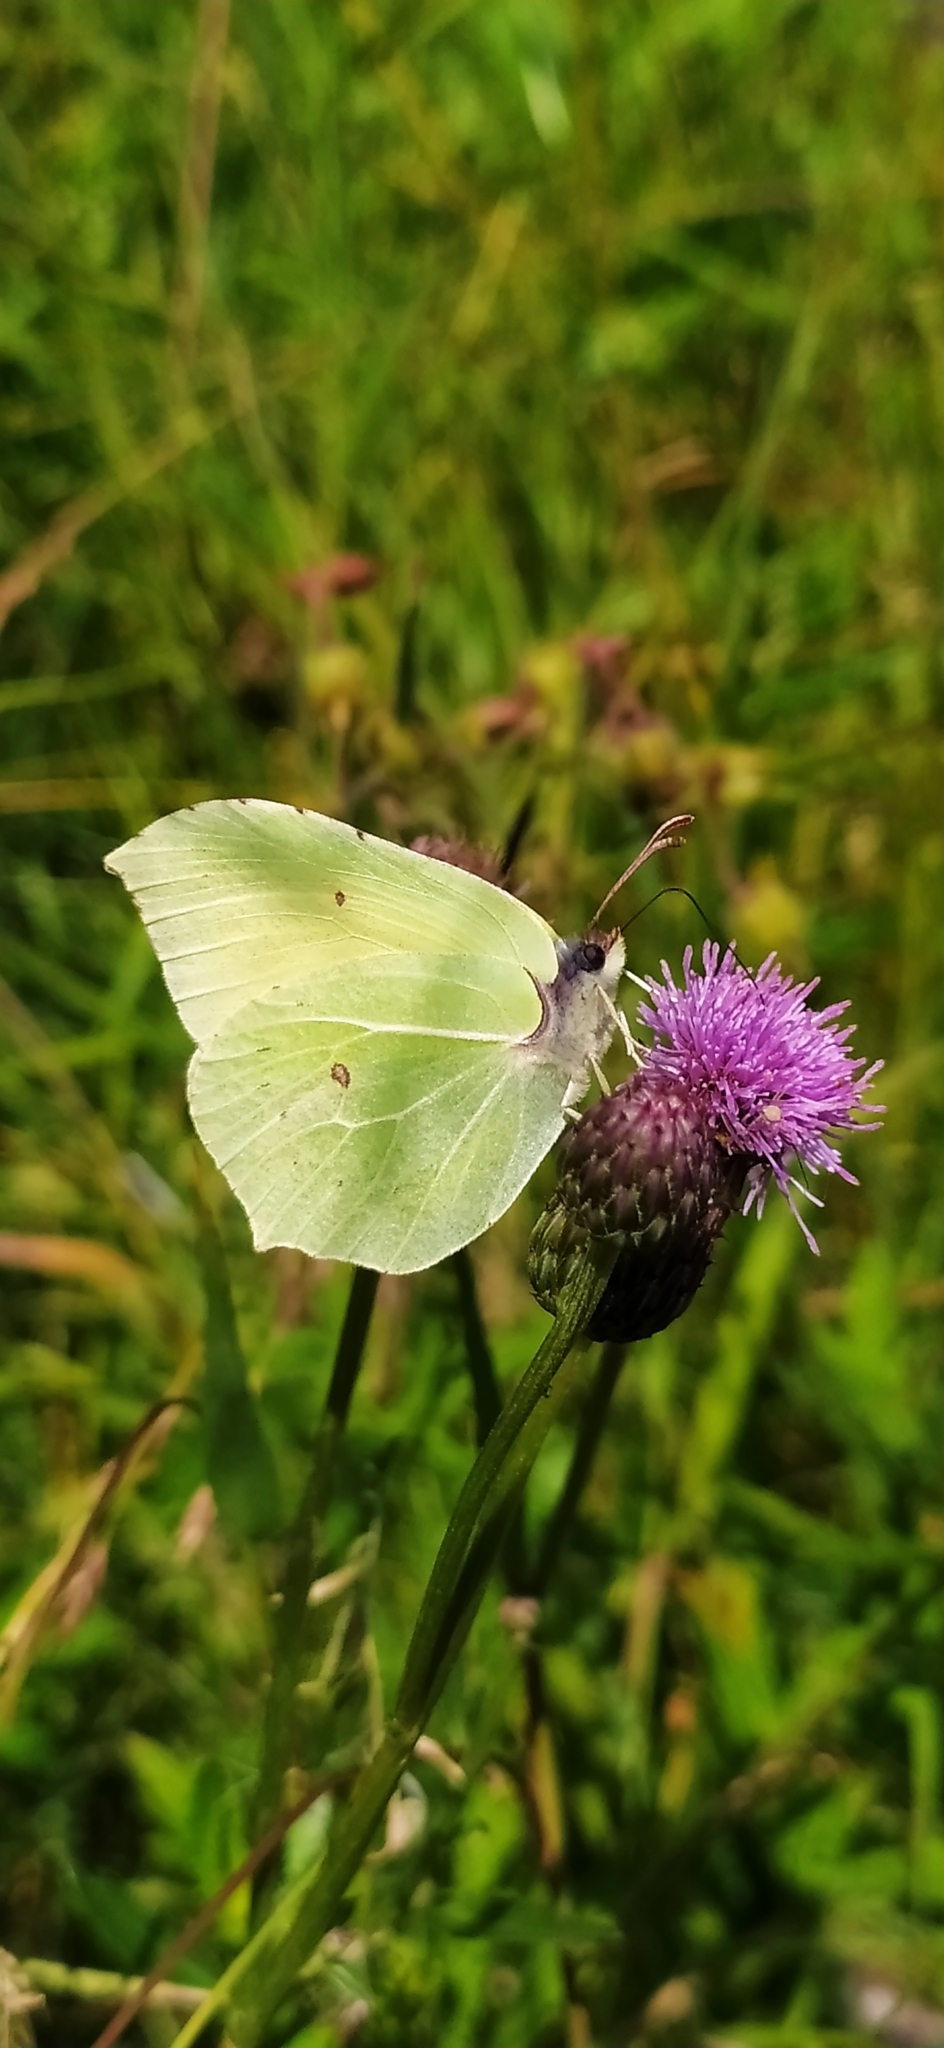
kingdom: Animalia
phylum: Arthropoda
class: Insecta
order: Lepidoptera
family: Pieridae
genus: Gonepteryx
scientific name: Gonepteryx rhamni
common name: Brimstone
